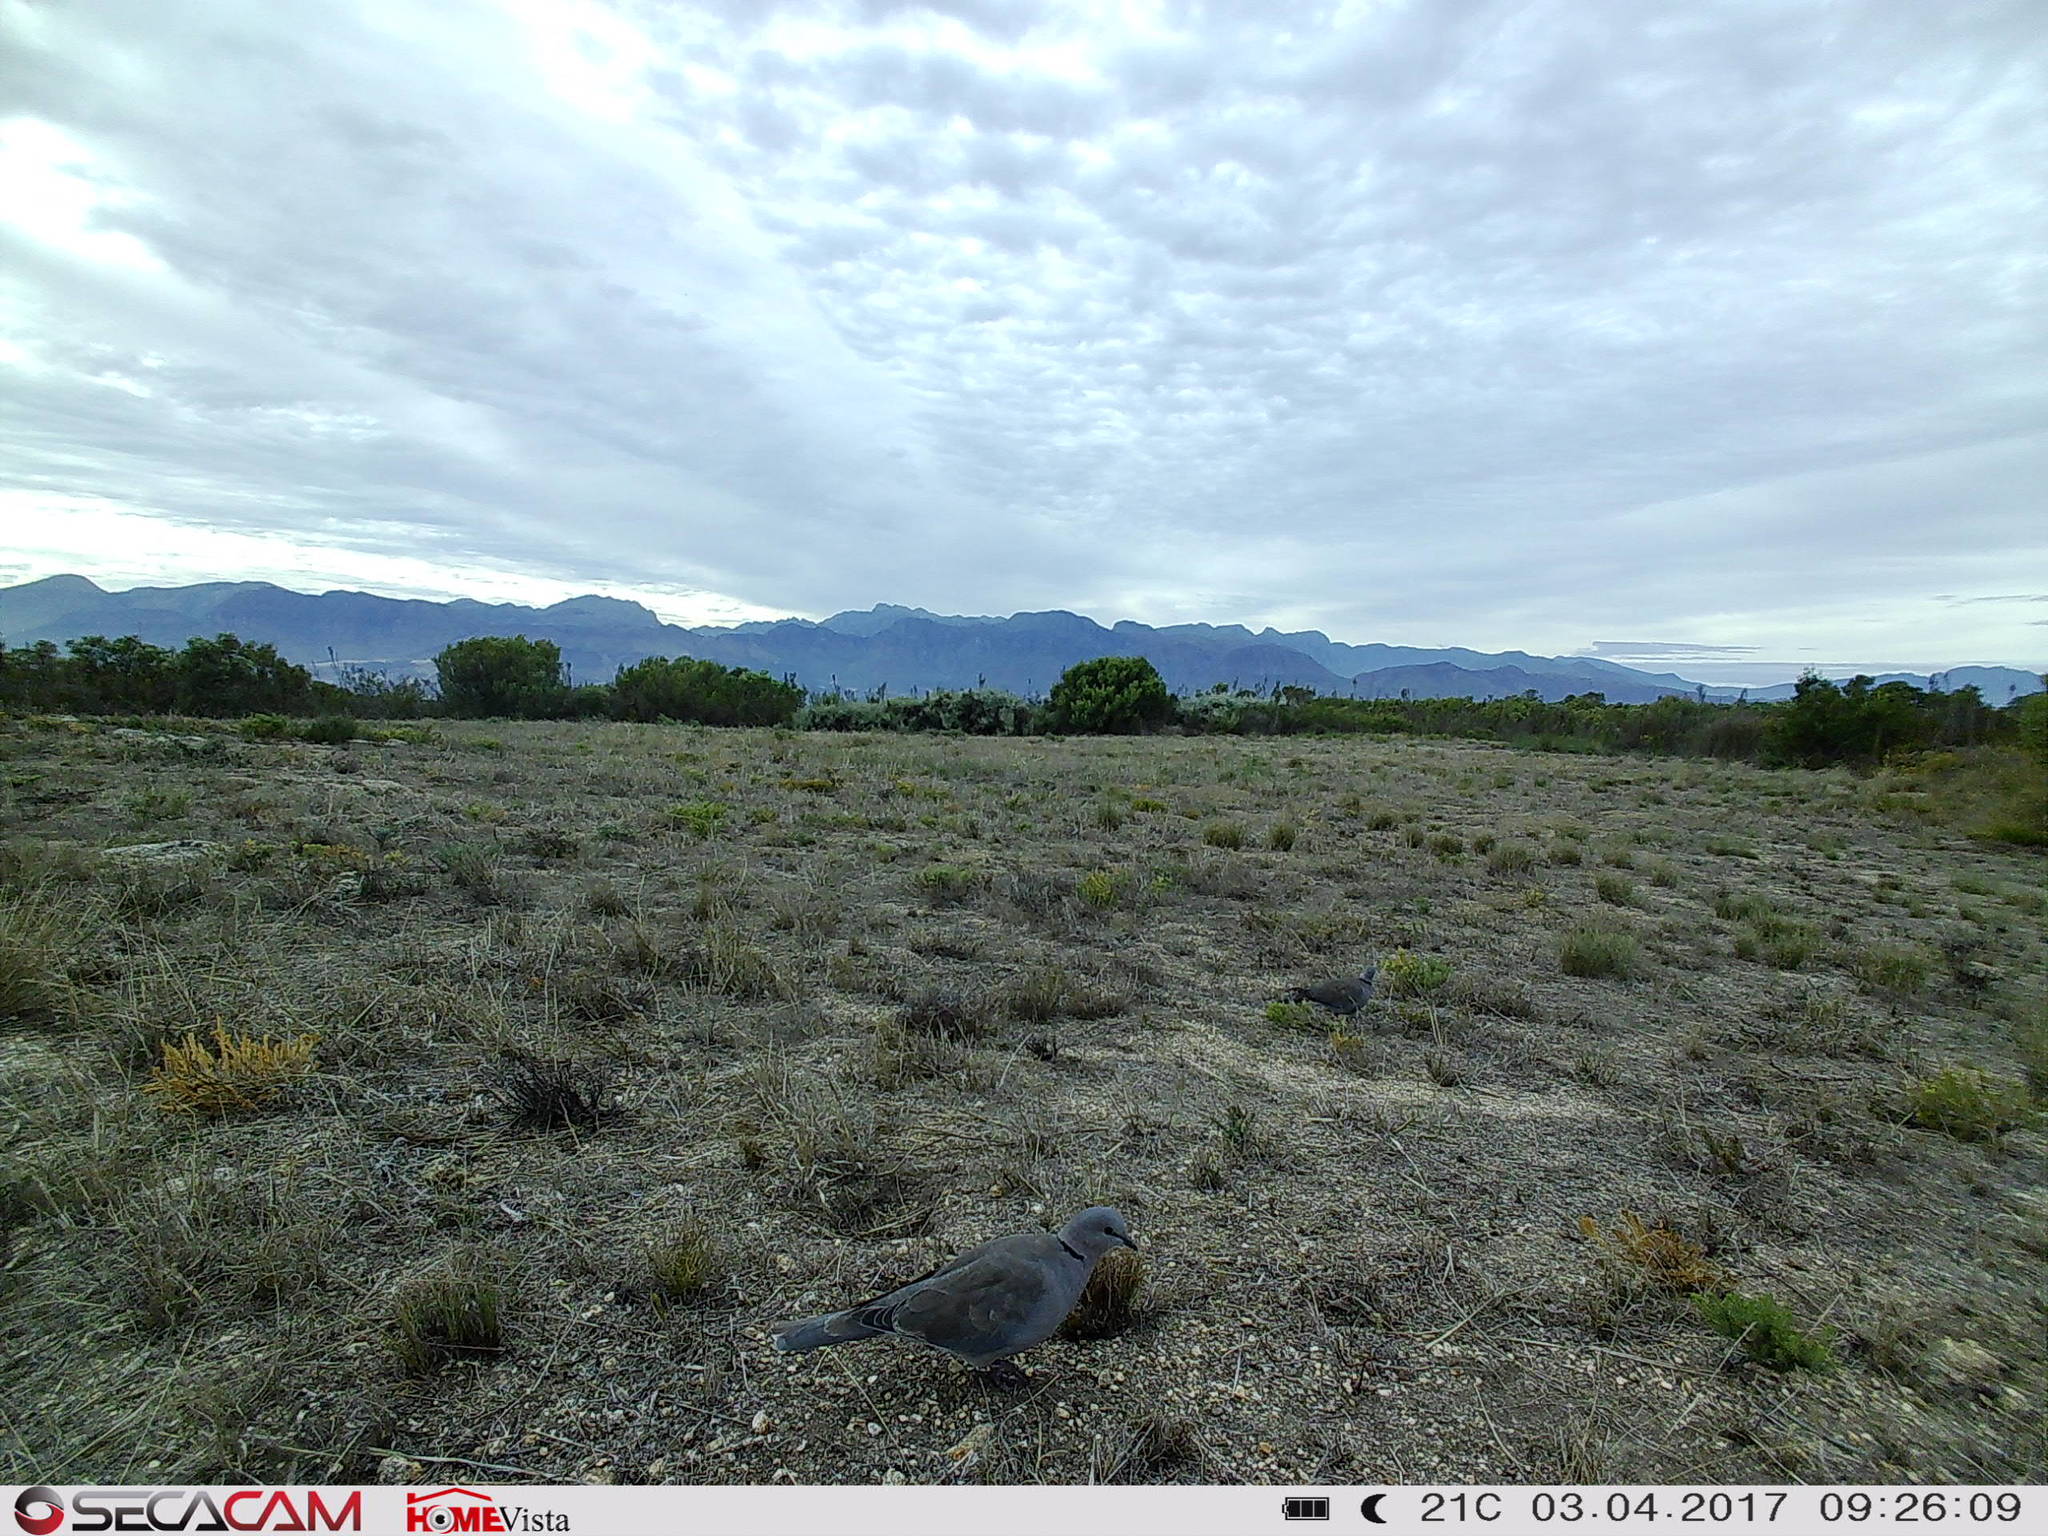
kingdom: Animalia
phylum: Chordata
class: Aves
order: Columbiformes
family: Columbidae
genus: Streptopelia
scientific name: Streptopelia capicola
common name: Ring-necked dove
